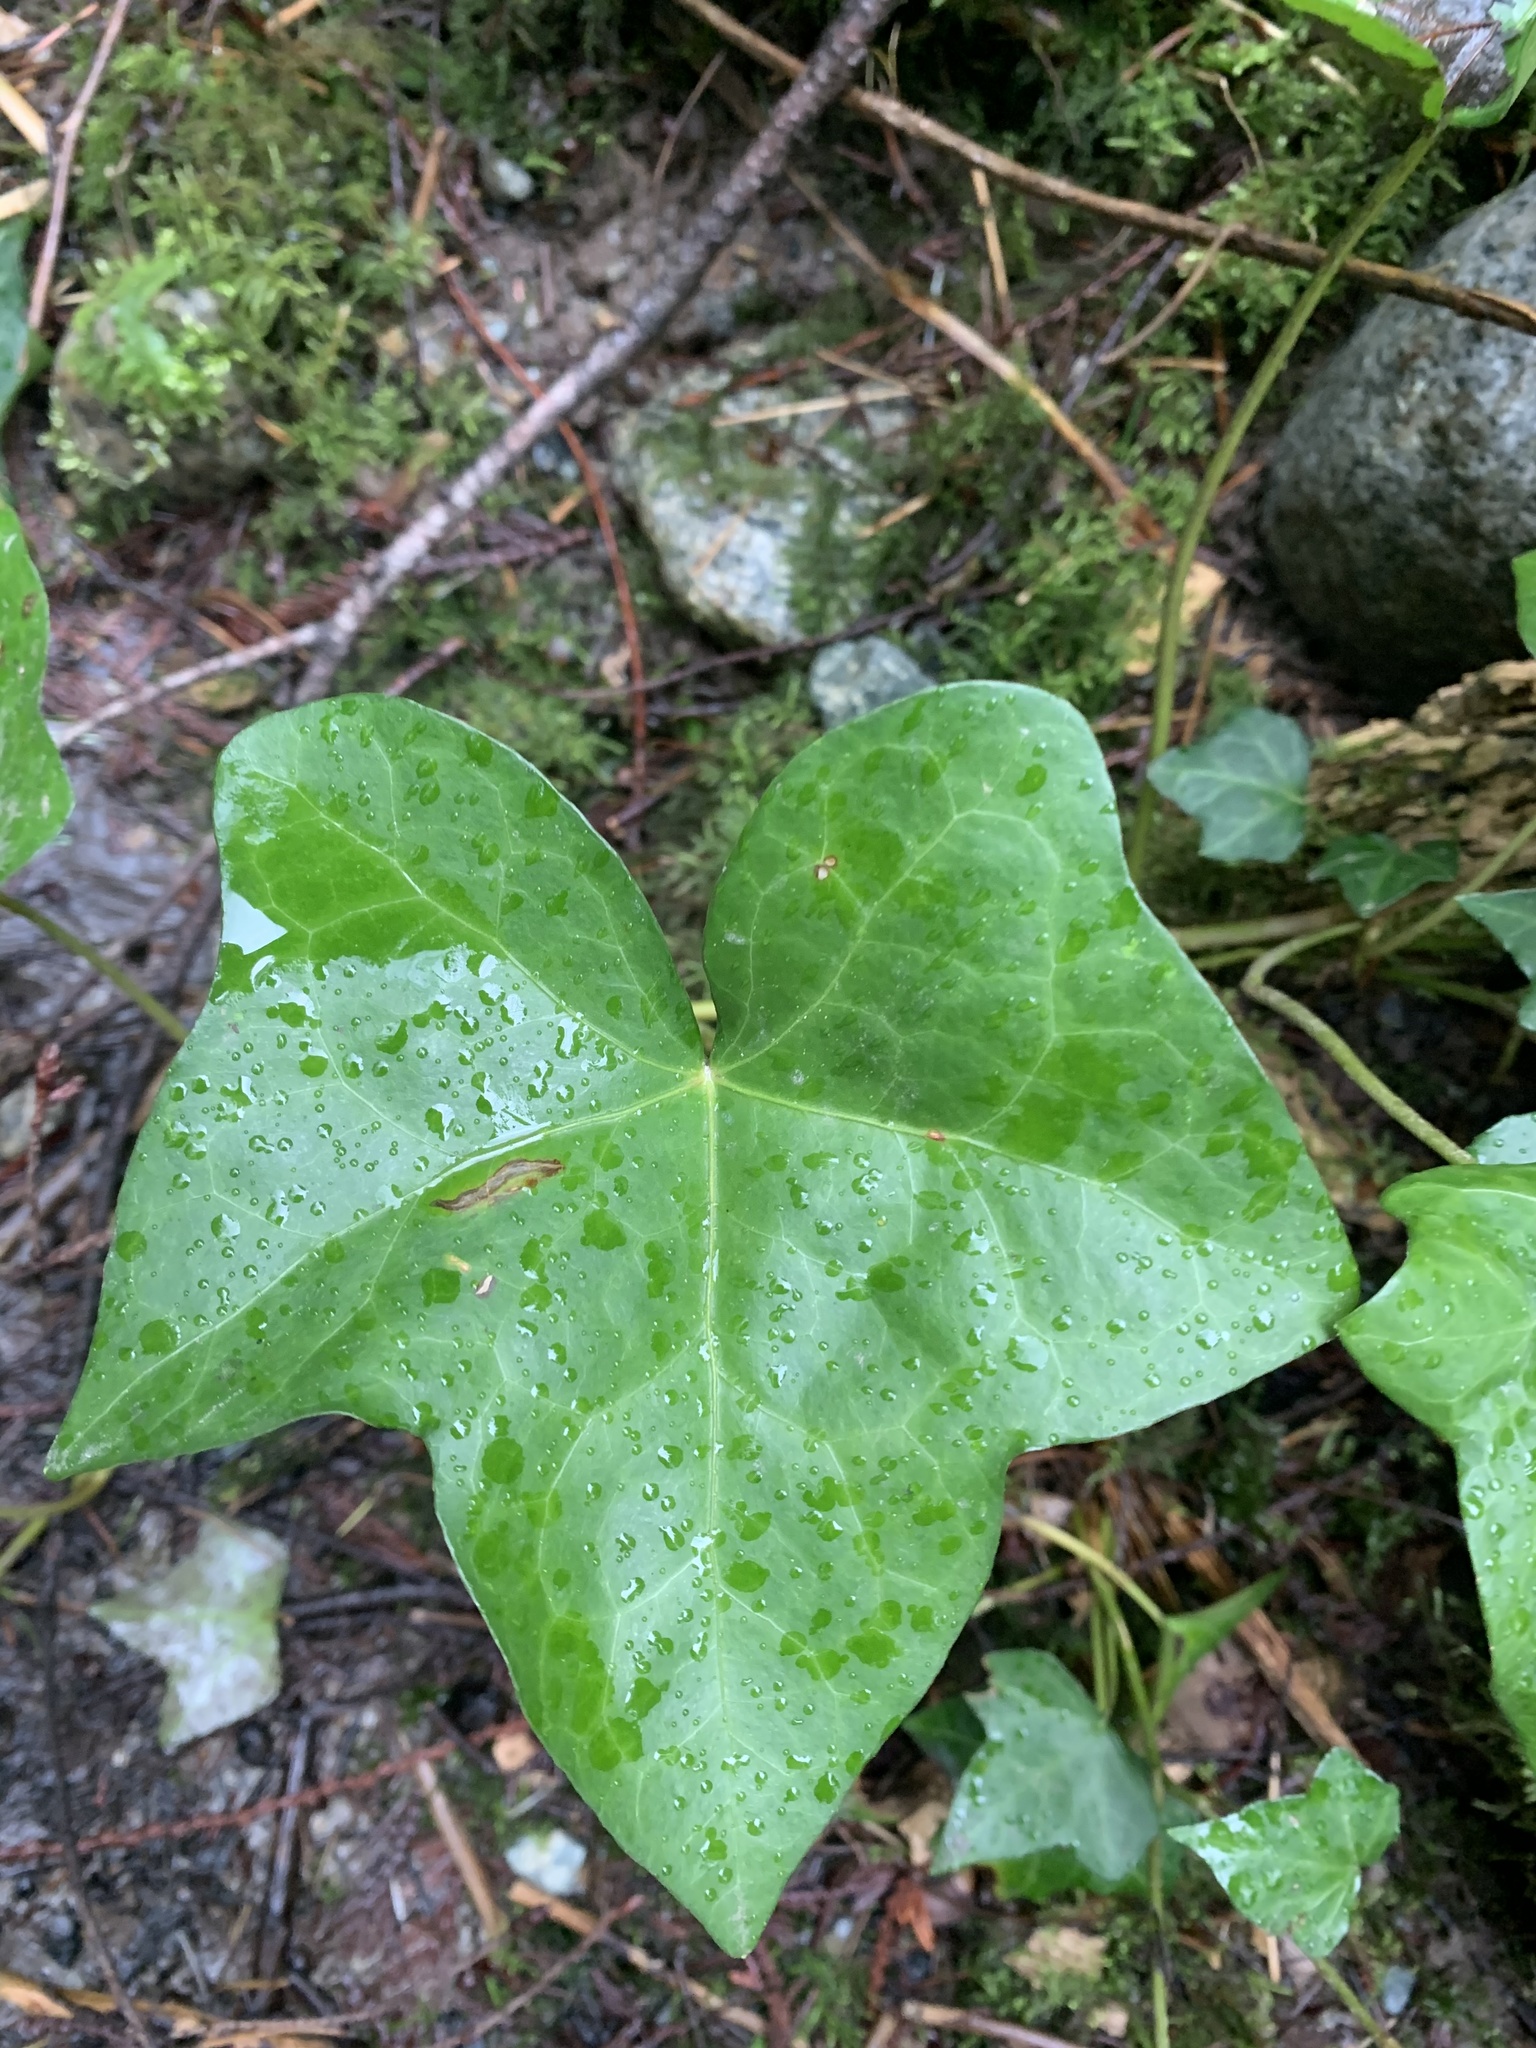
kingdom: Plantae
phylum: Tracheophyta
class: Magnoliopsida
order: Apiales
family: Araliaceae
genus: Hedera
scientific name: Hedera helix
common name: Ivy
